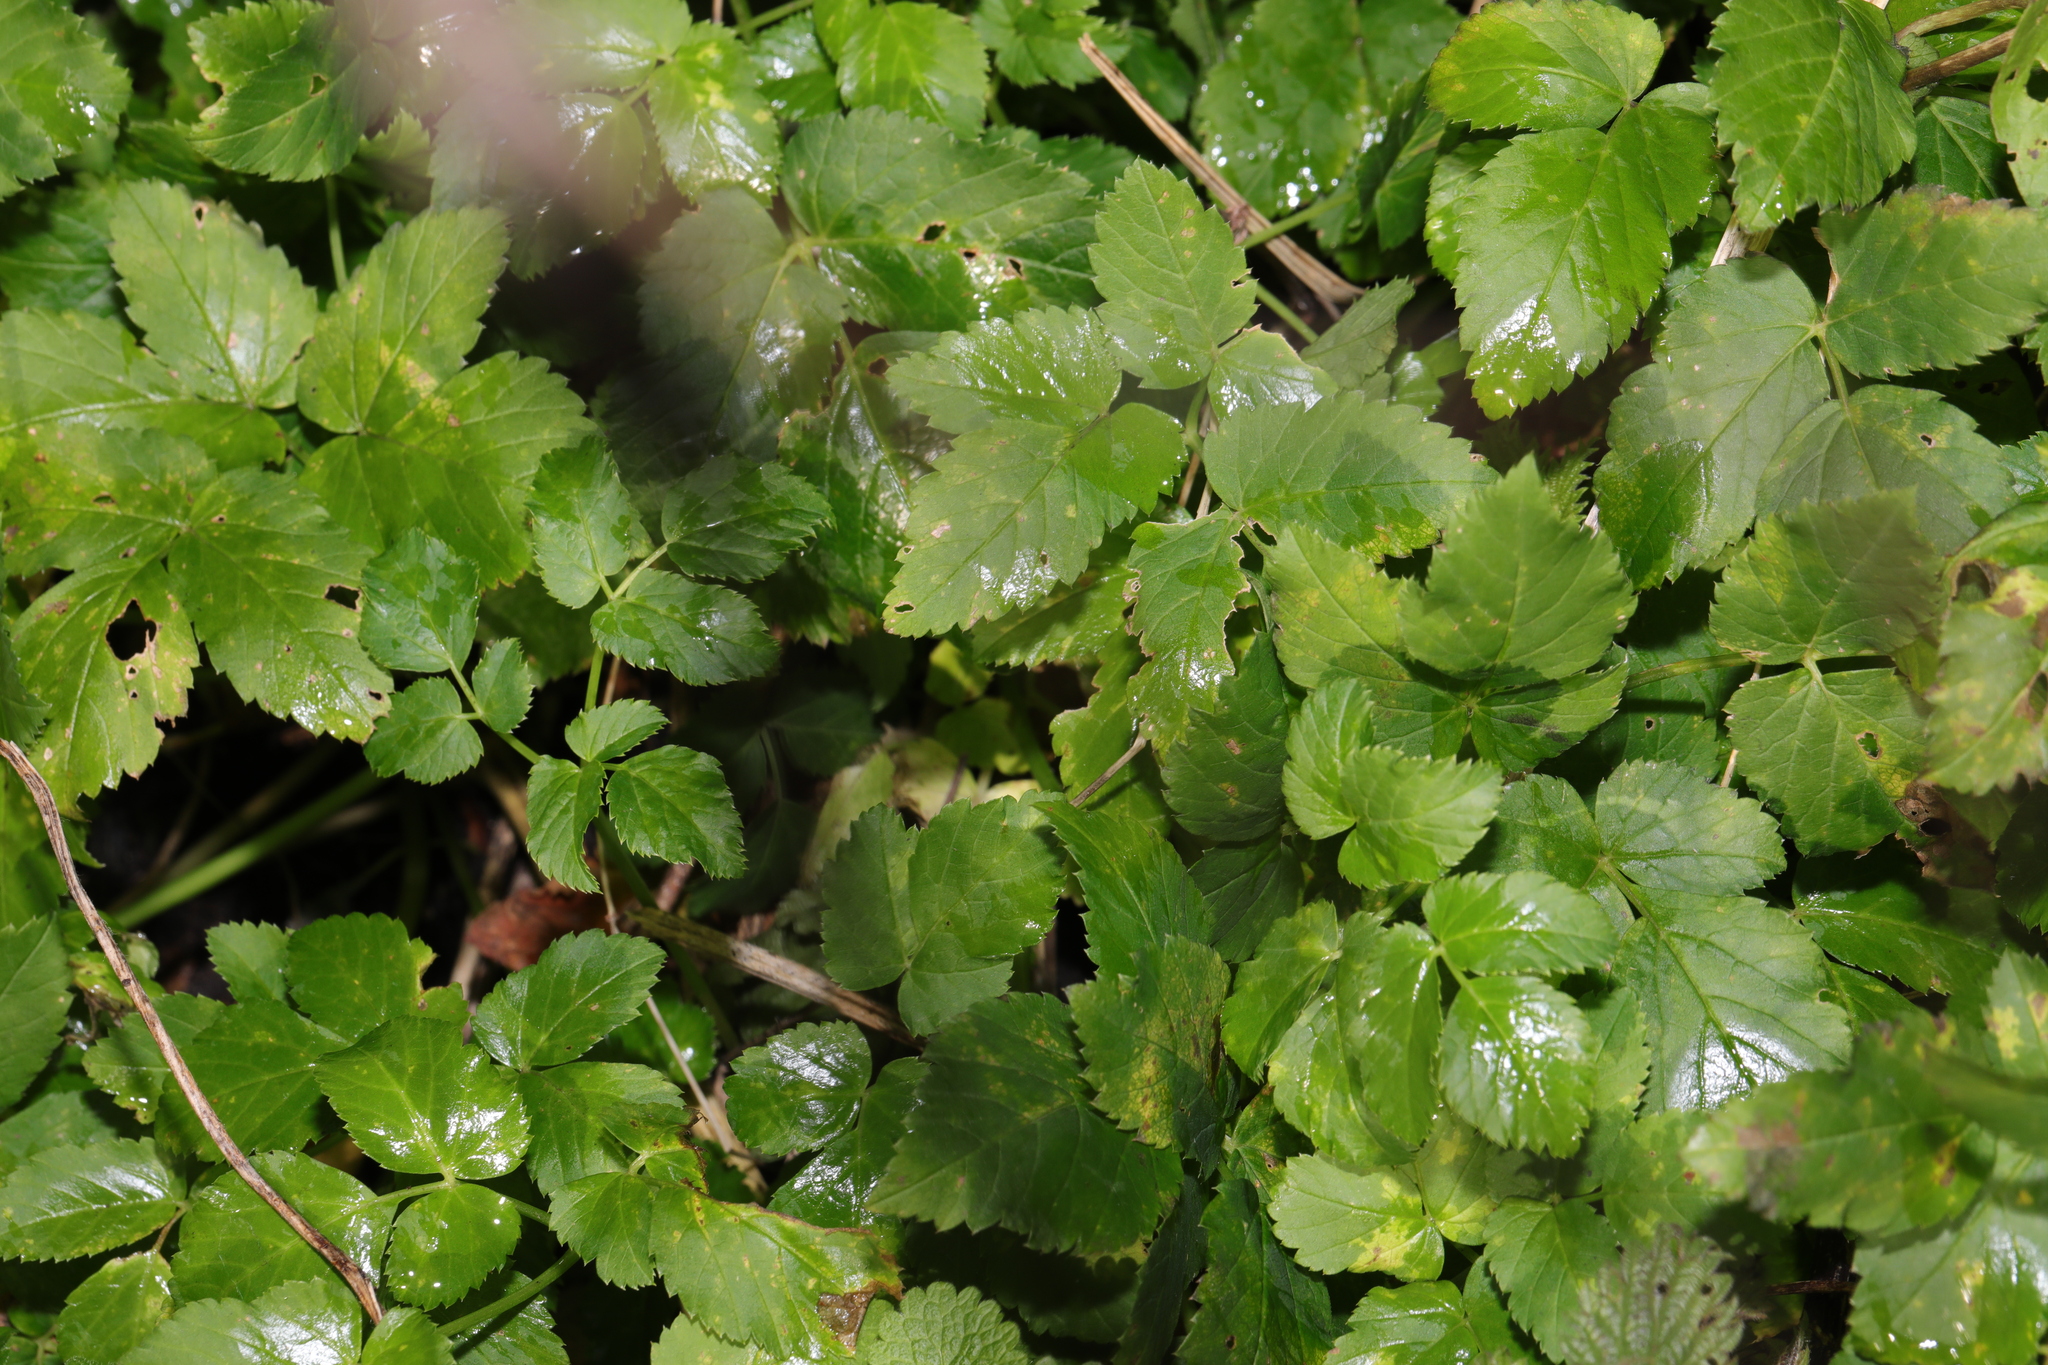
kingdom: Plantae
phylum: Tracheophyta
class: Magnoliopsida
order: Apiales
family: Apiaceae
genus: Aegopodium
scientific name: Aegopodium podagraria
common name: Ground-elder
